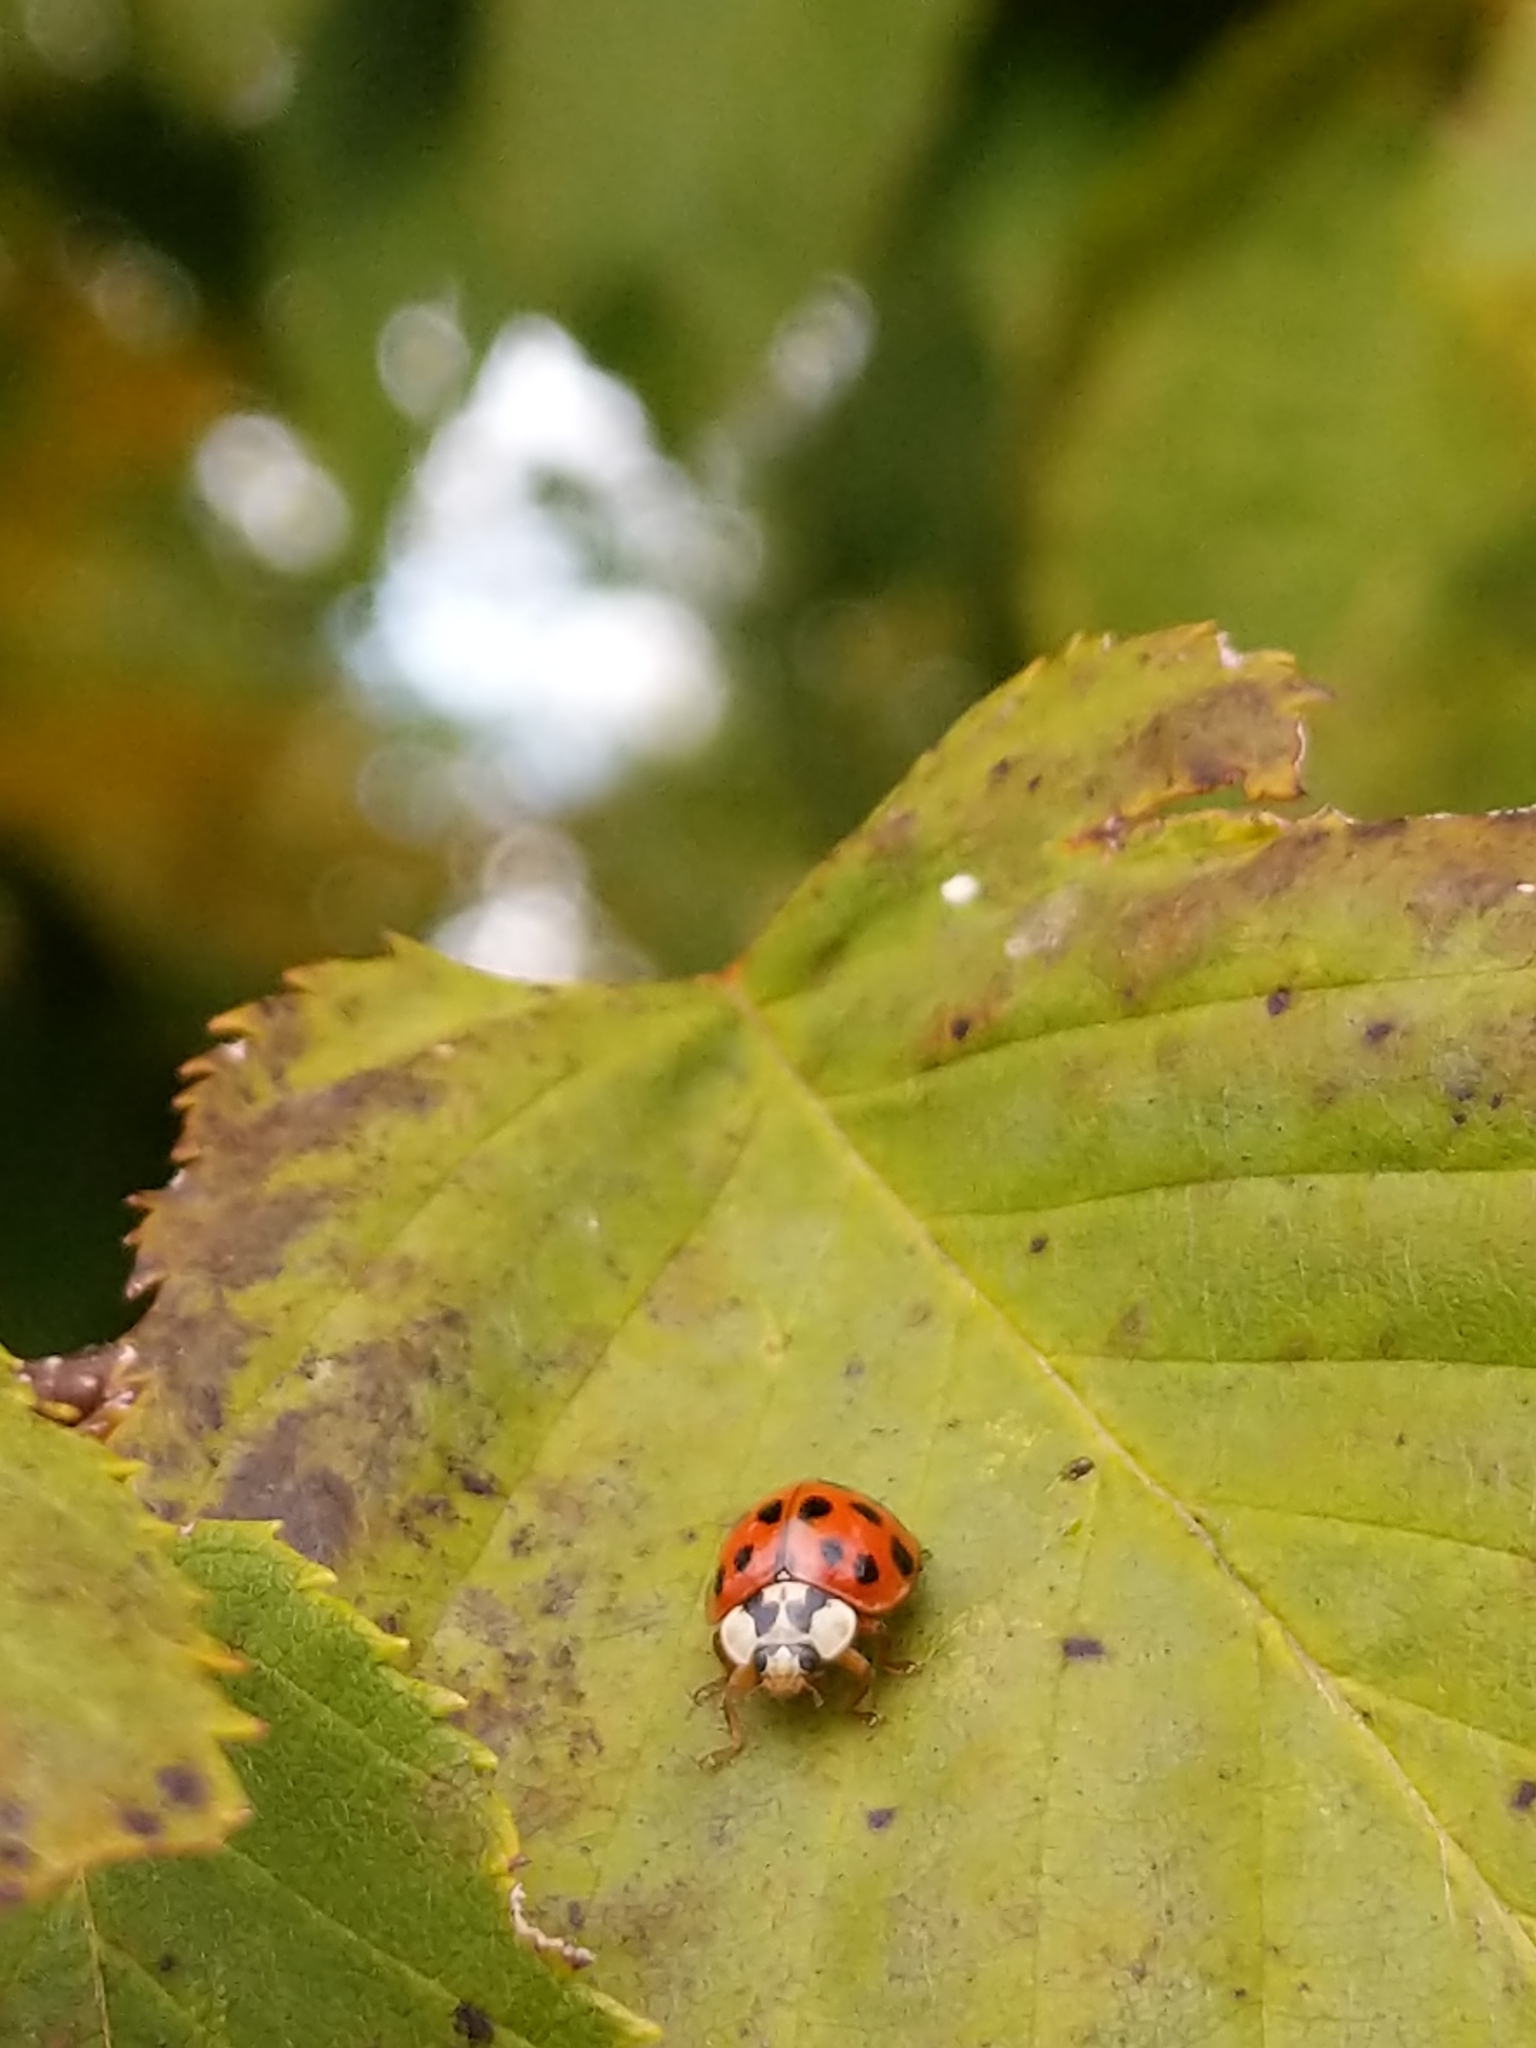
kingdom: Animalia
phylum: Arthropoda
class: Insecta
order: Coleoptera
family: Coccinellidae
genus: Harmonia
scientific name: Harmonia axyridis
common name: Harlequin ladybird
